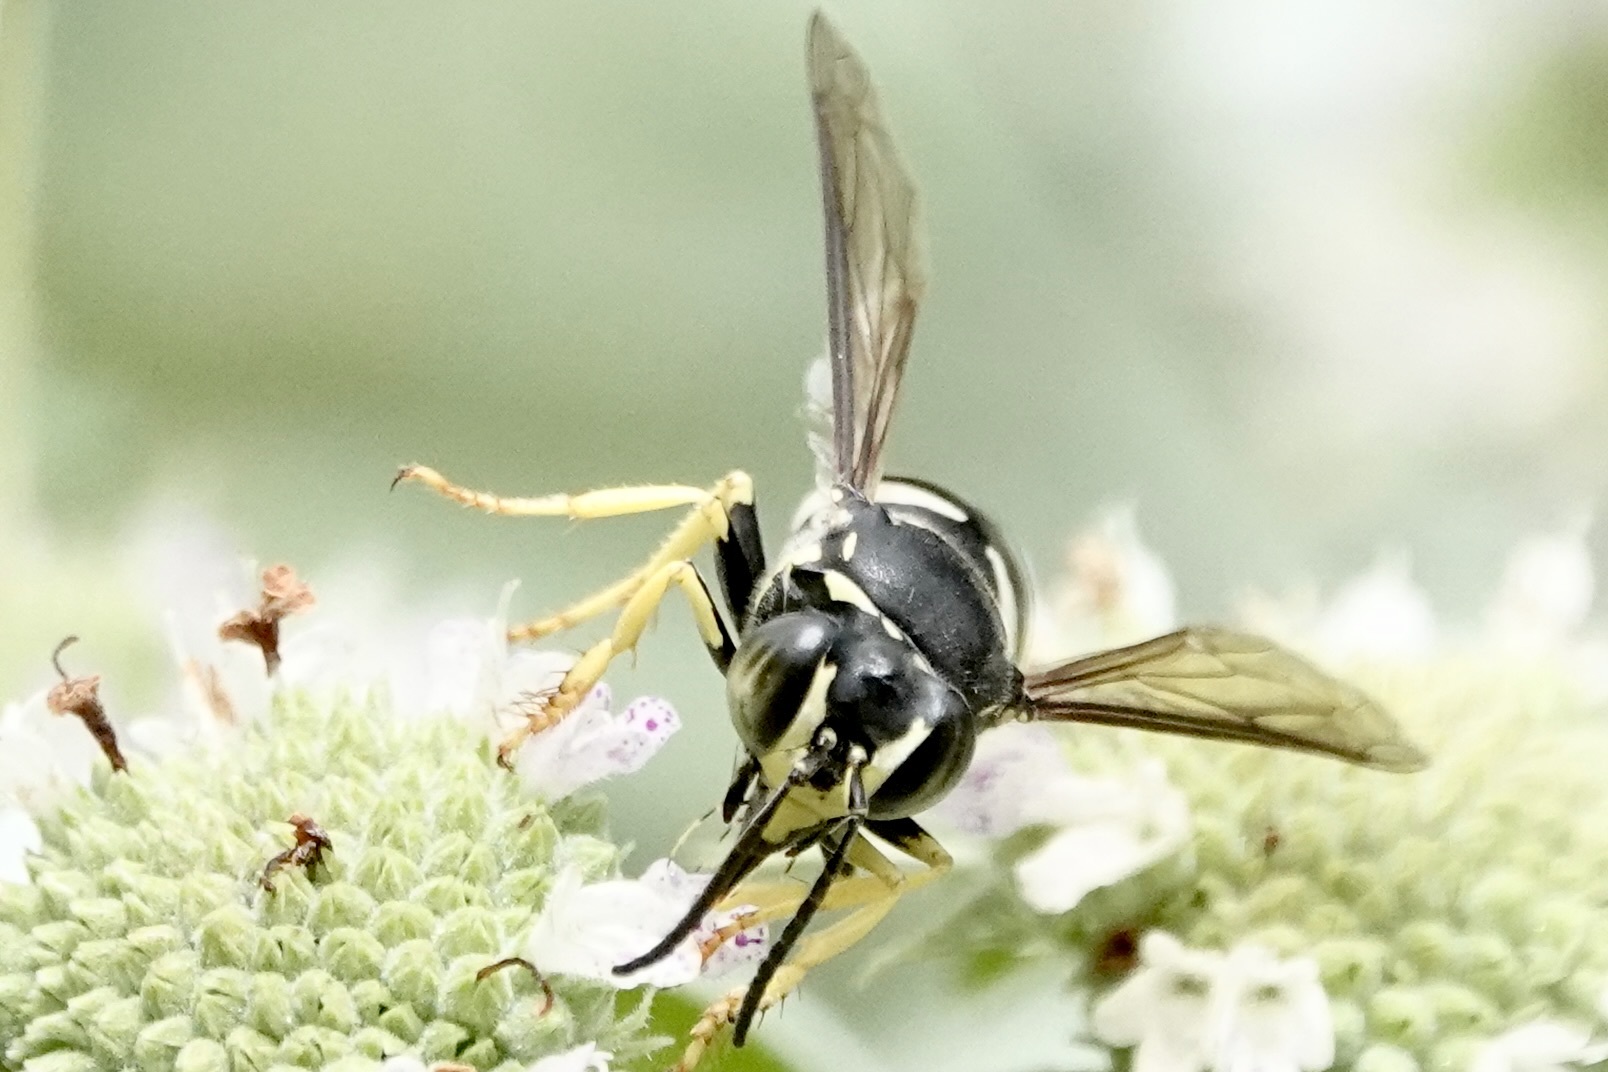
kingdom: Animalia
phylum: Arthropoda
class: Insecta
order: Hymenoptera
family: Crabronidae
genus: Bicyrtes
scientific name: Bicyrtes quadrifasciatus
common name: Four-banded stink bug hunter wasp
